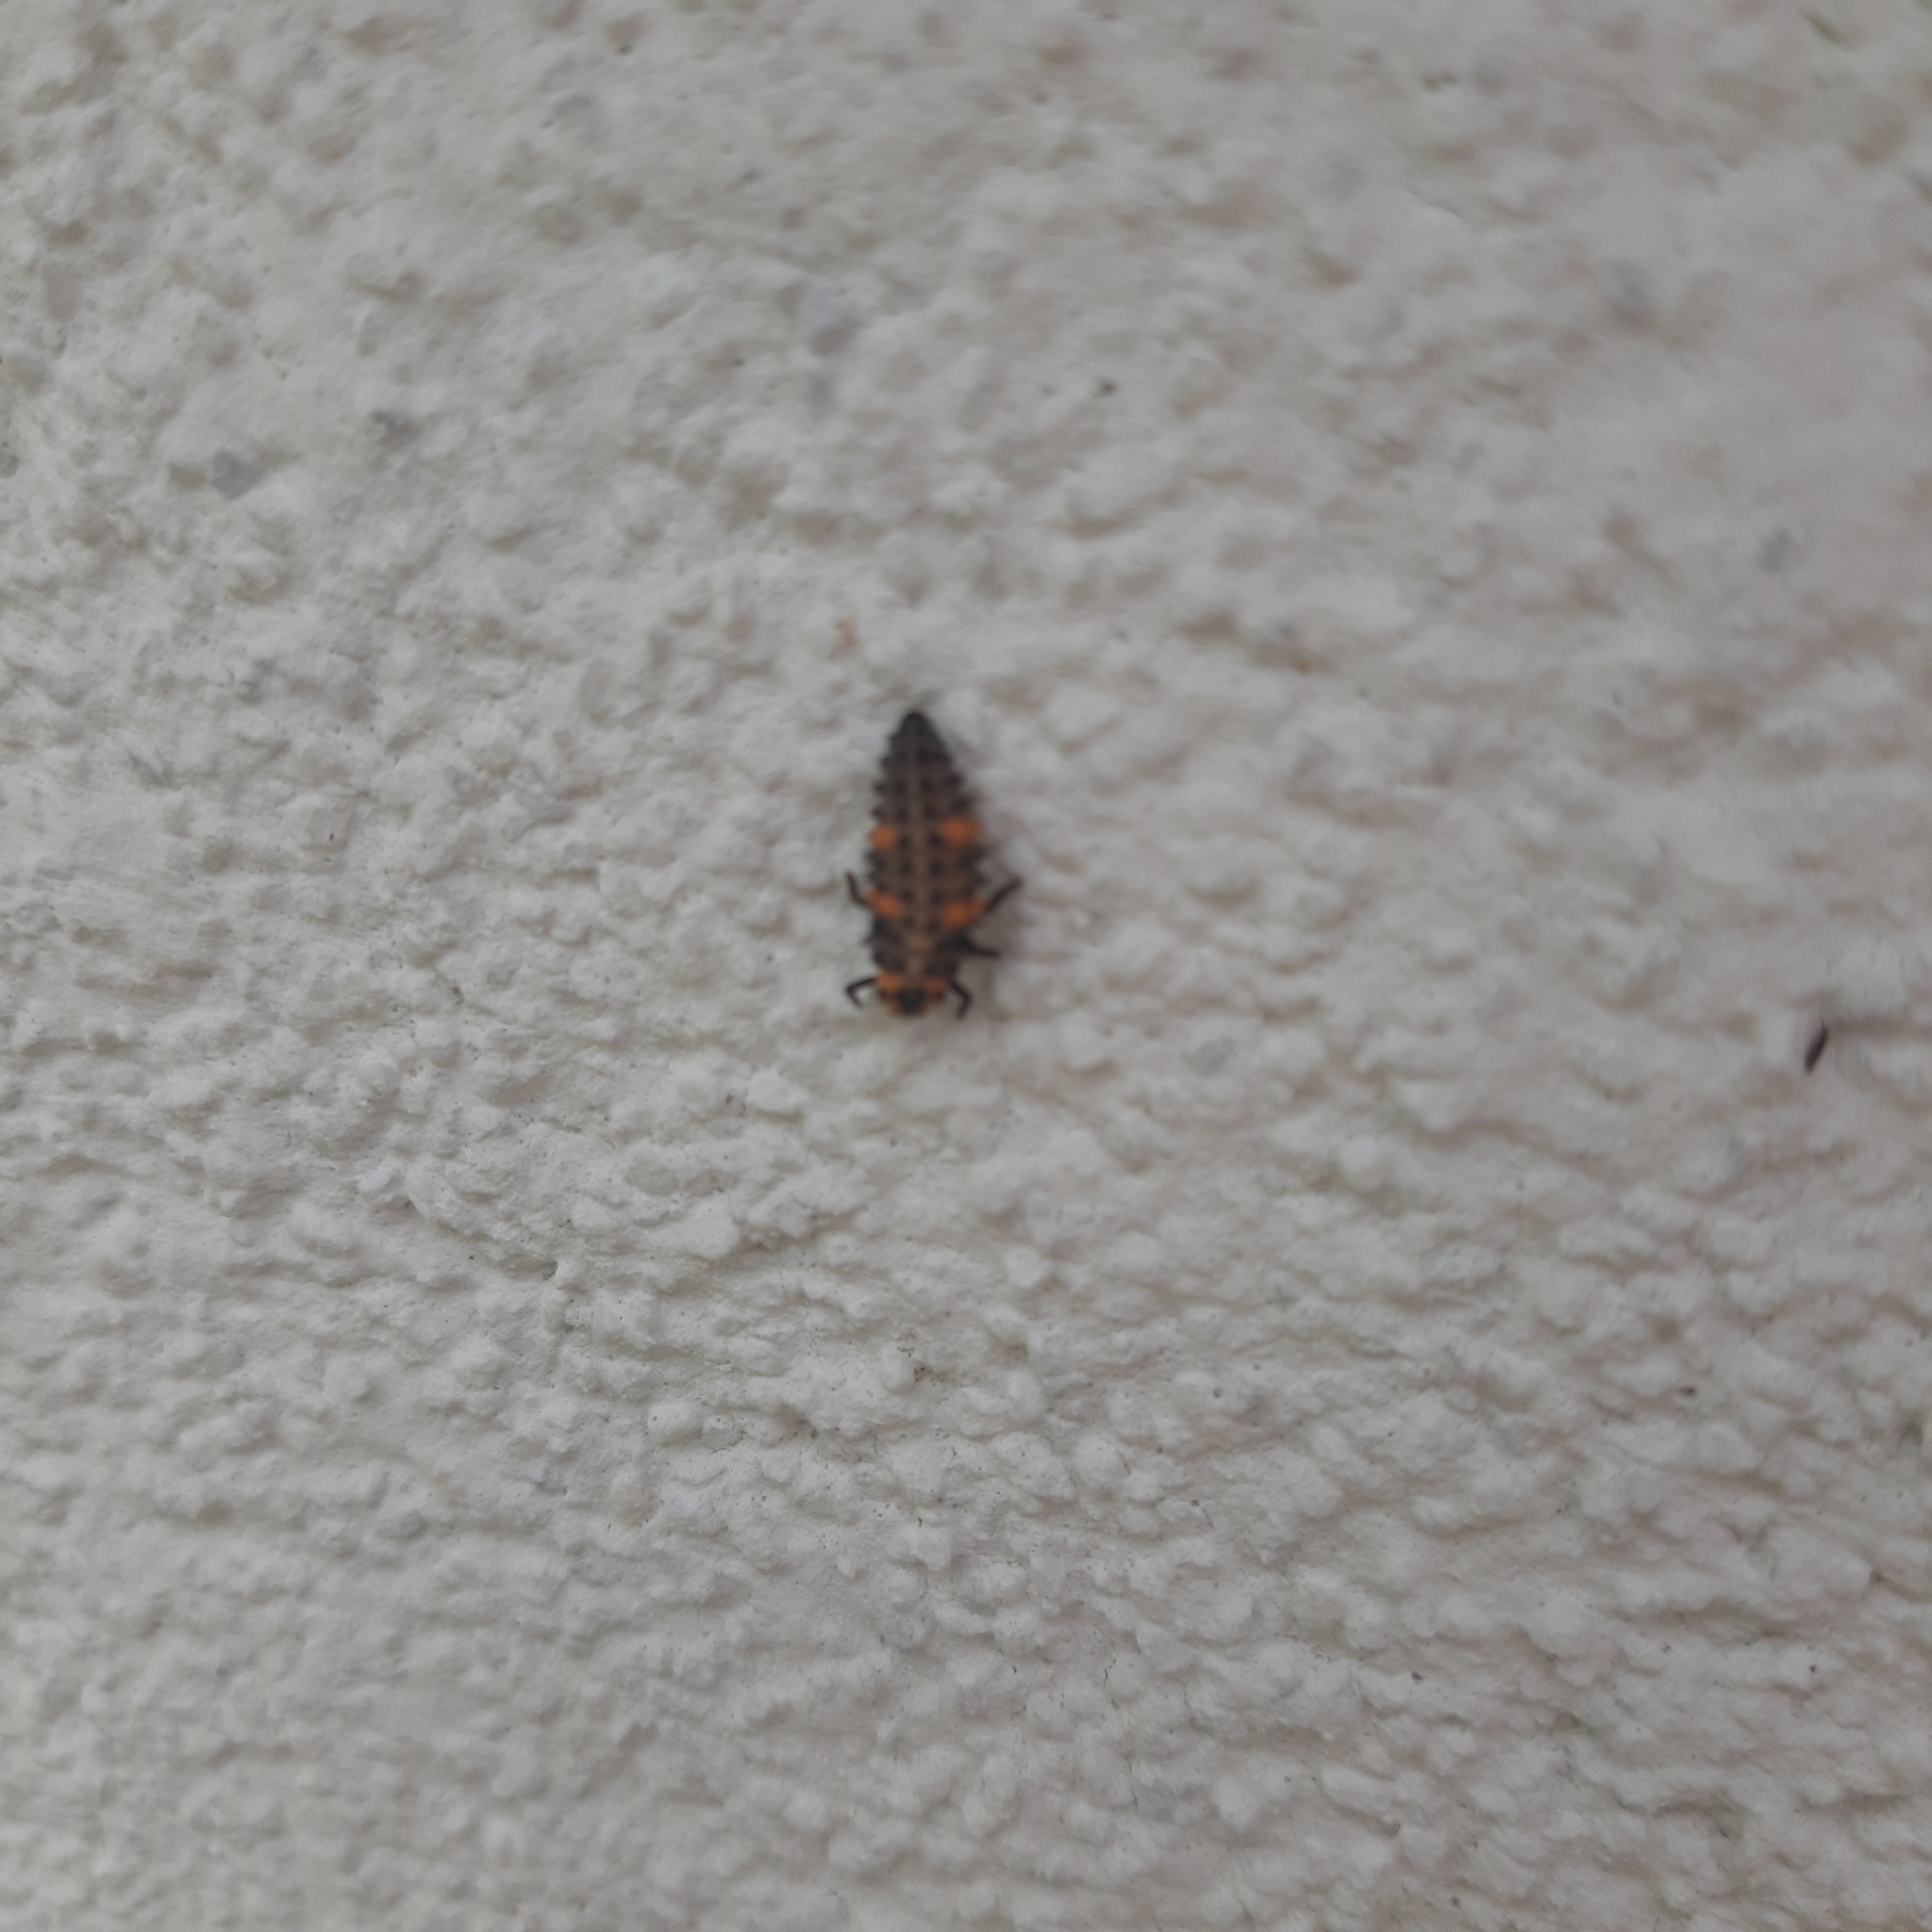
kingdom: Animalia
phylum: Arthropoda
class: Insecta
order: Coleoptera
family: Coccinellidae
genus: Coccinella
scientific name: Coccinella septempunctata
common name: Sevenspotted lady beetle
